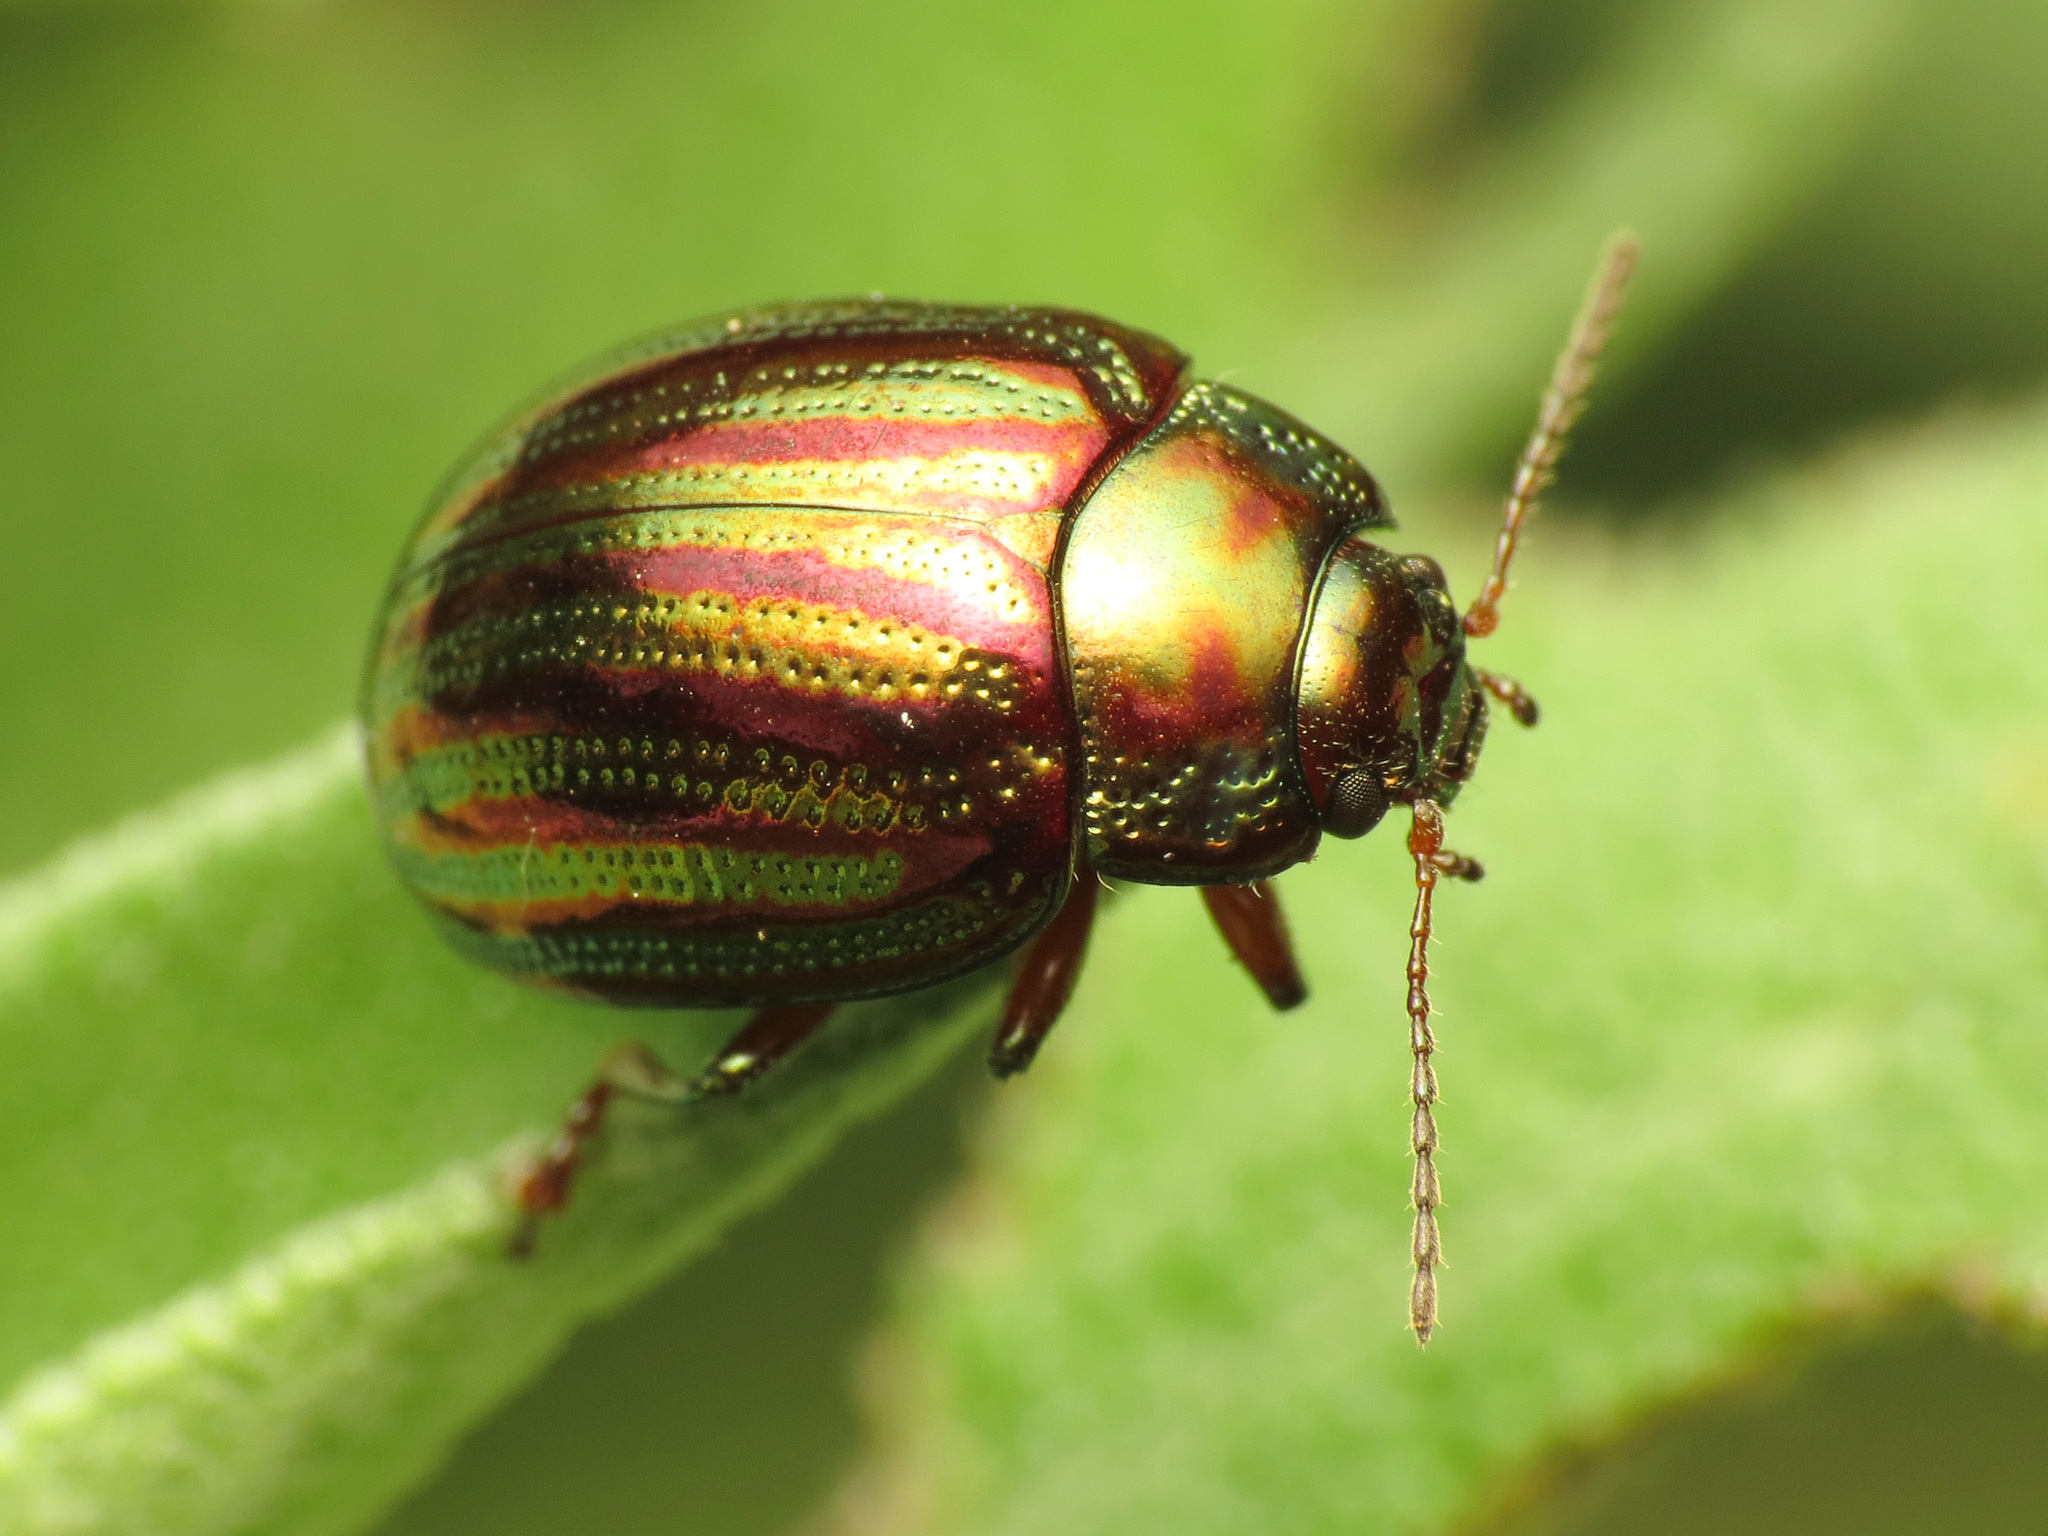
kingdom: Animalia
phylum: Arthropoda
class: Insecta
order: Coleoptera
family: Chrysomelidae
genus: Chrysolina
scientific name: Chrysolina americana
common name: Rosemary beetle
